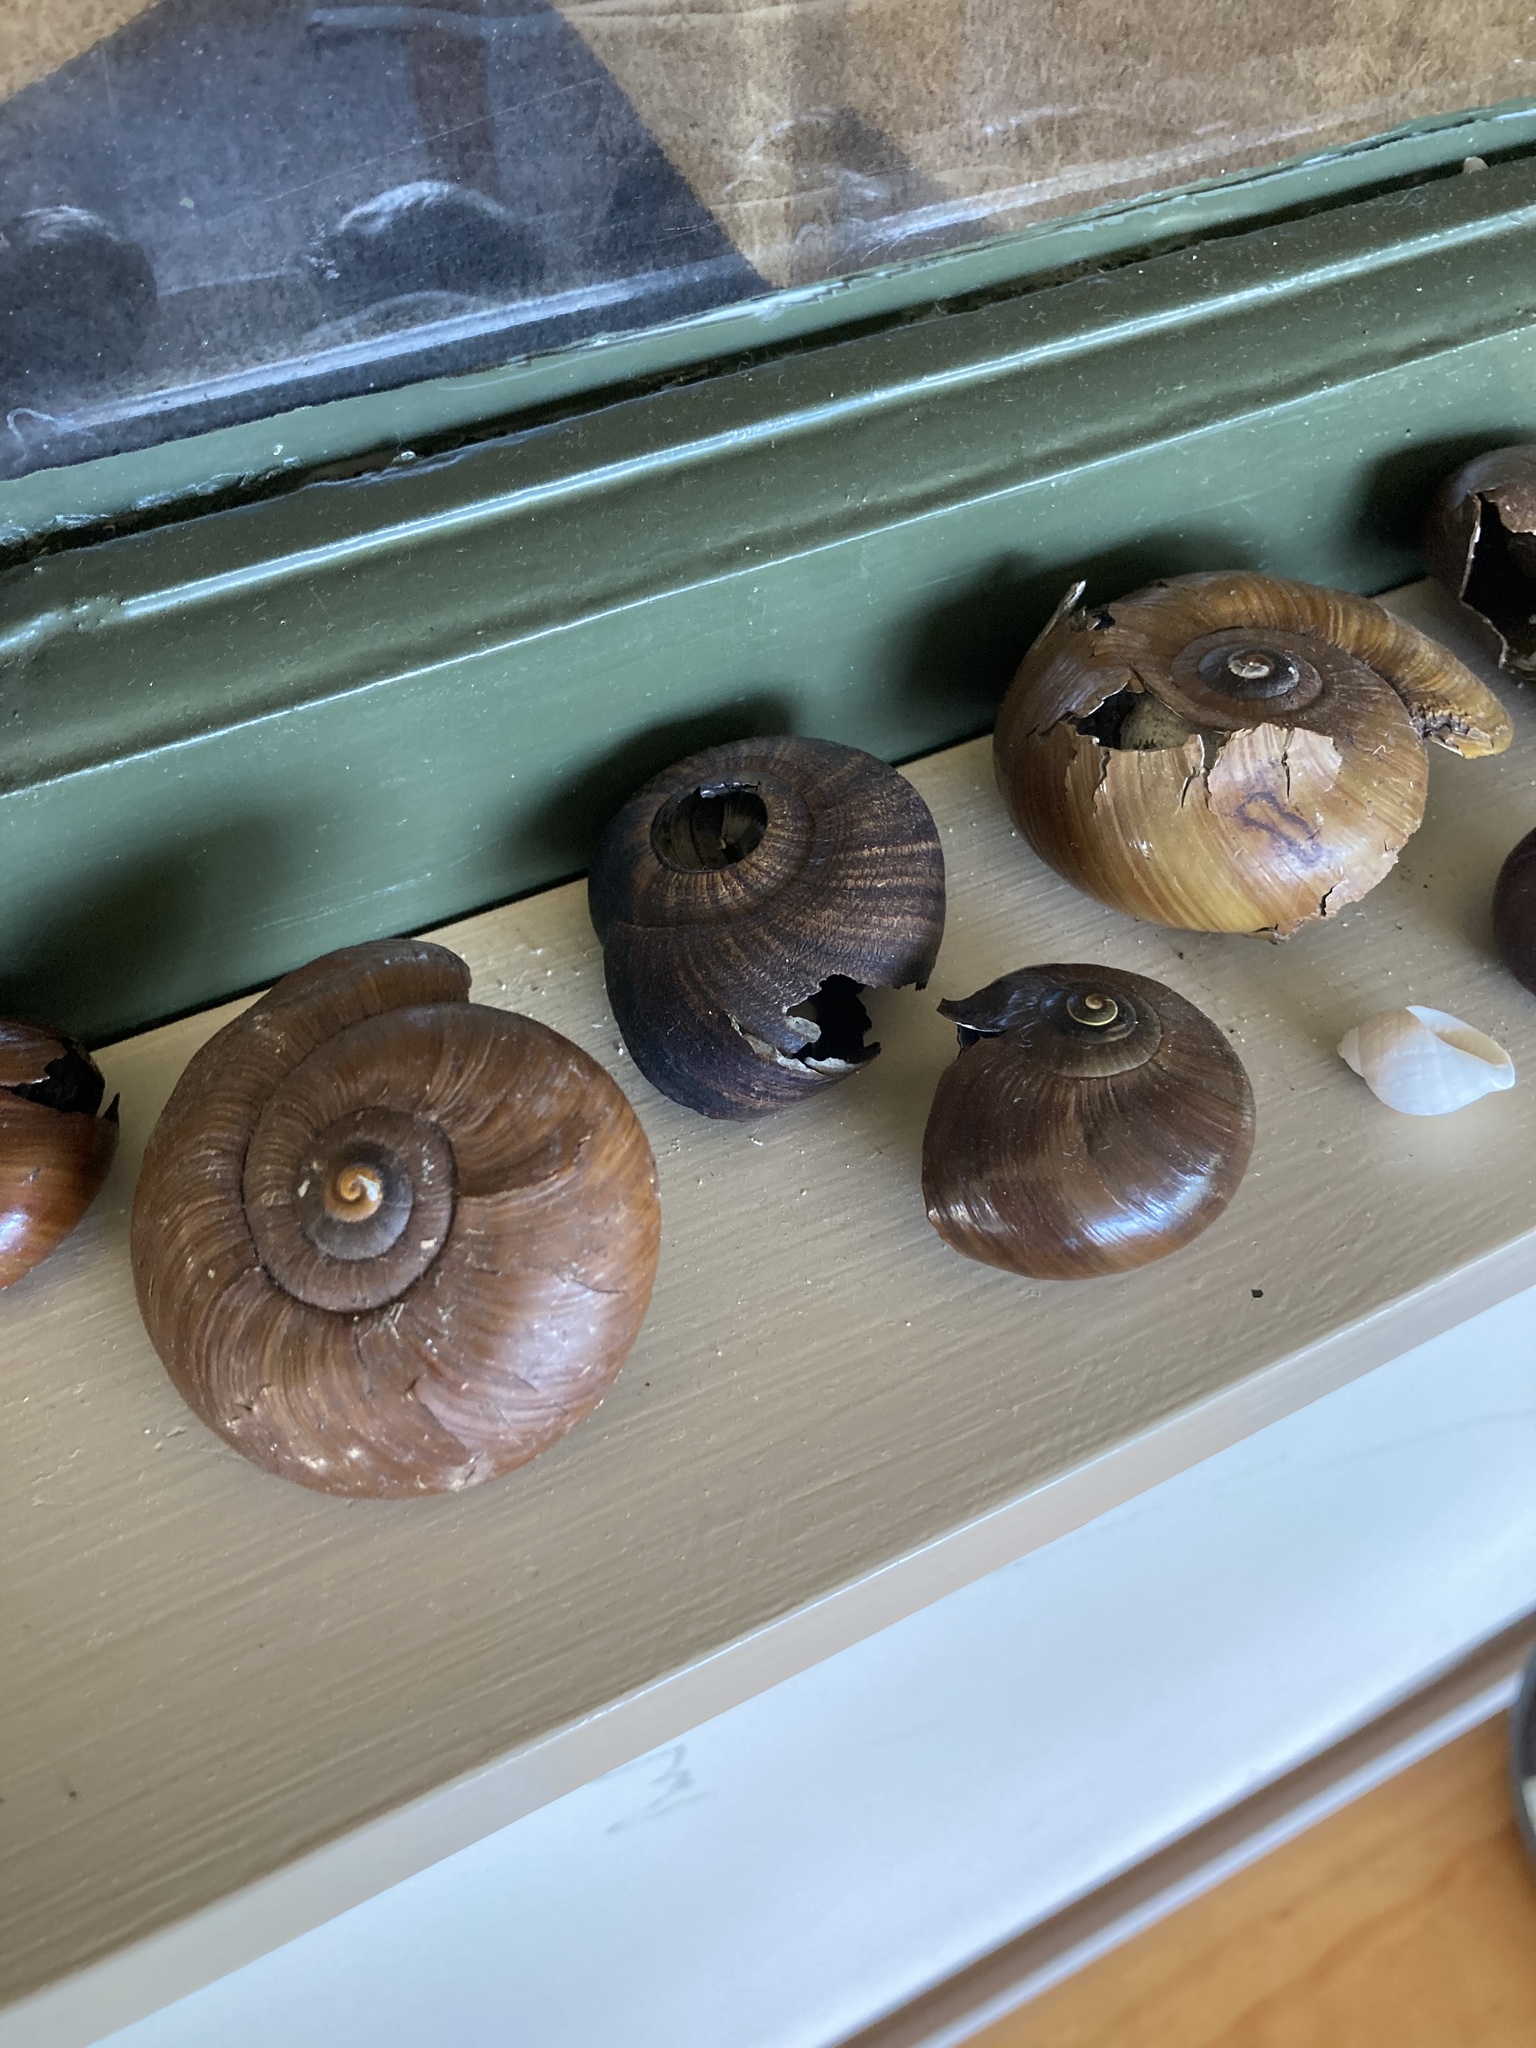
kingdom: Animalia
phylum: Mollusca
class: Gastropoda
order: Stylommatophora
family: Rhytididae
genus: Powelliphanta
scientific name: Powelliphanta annectens
